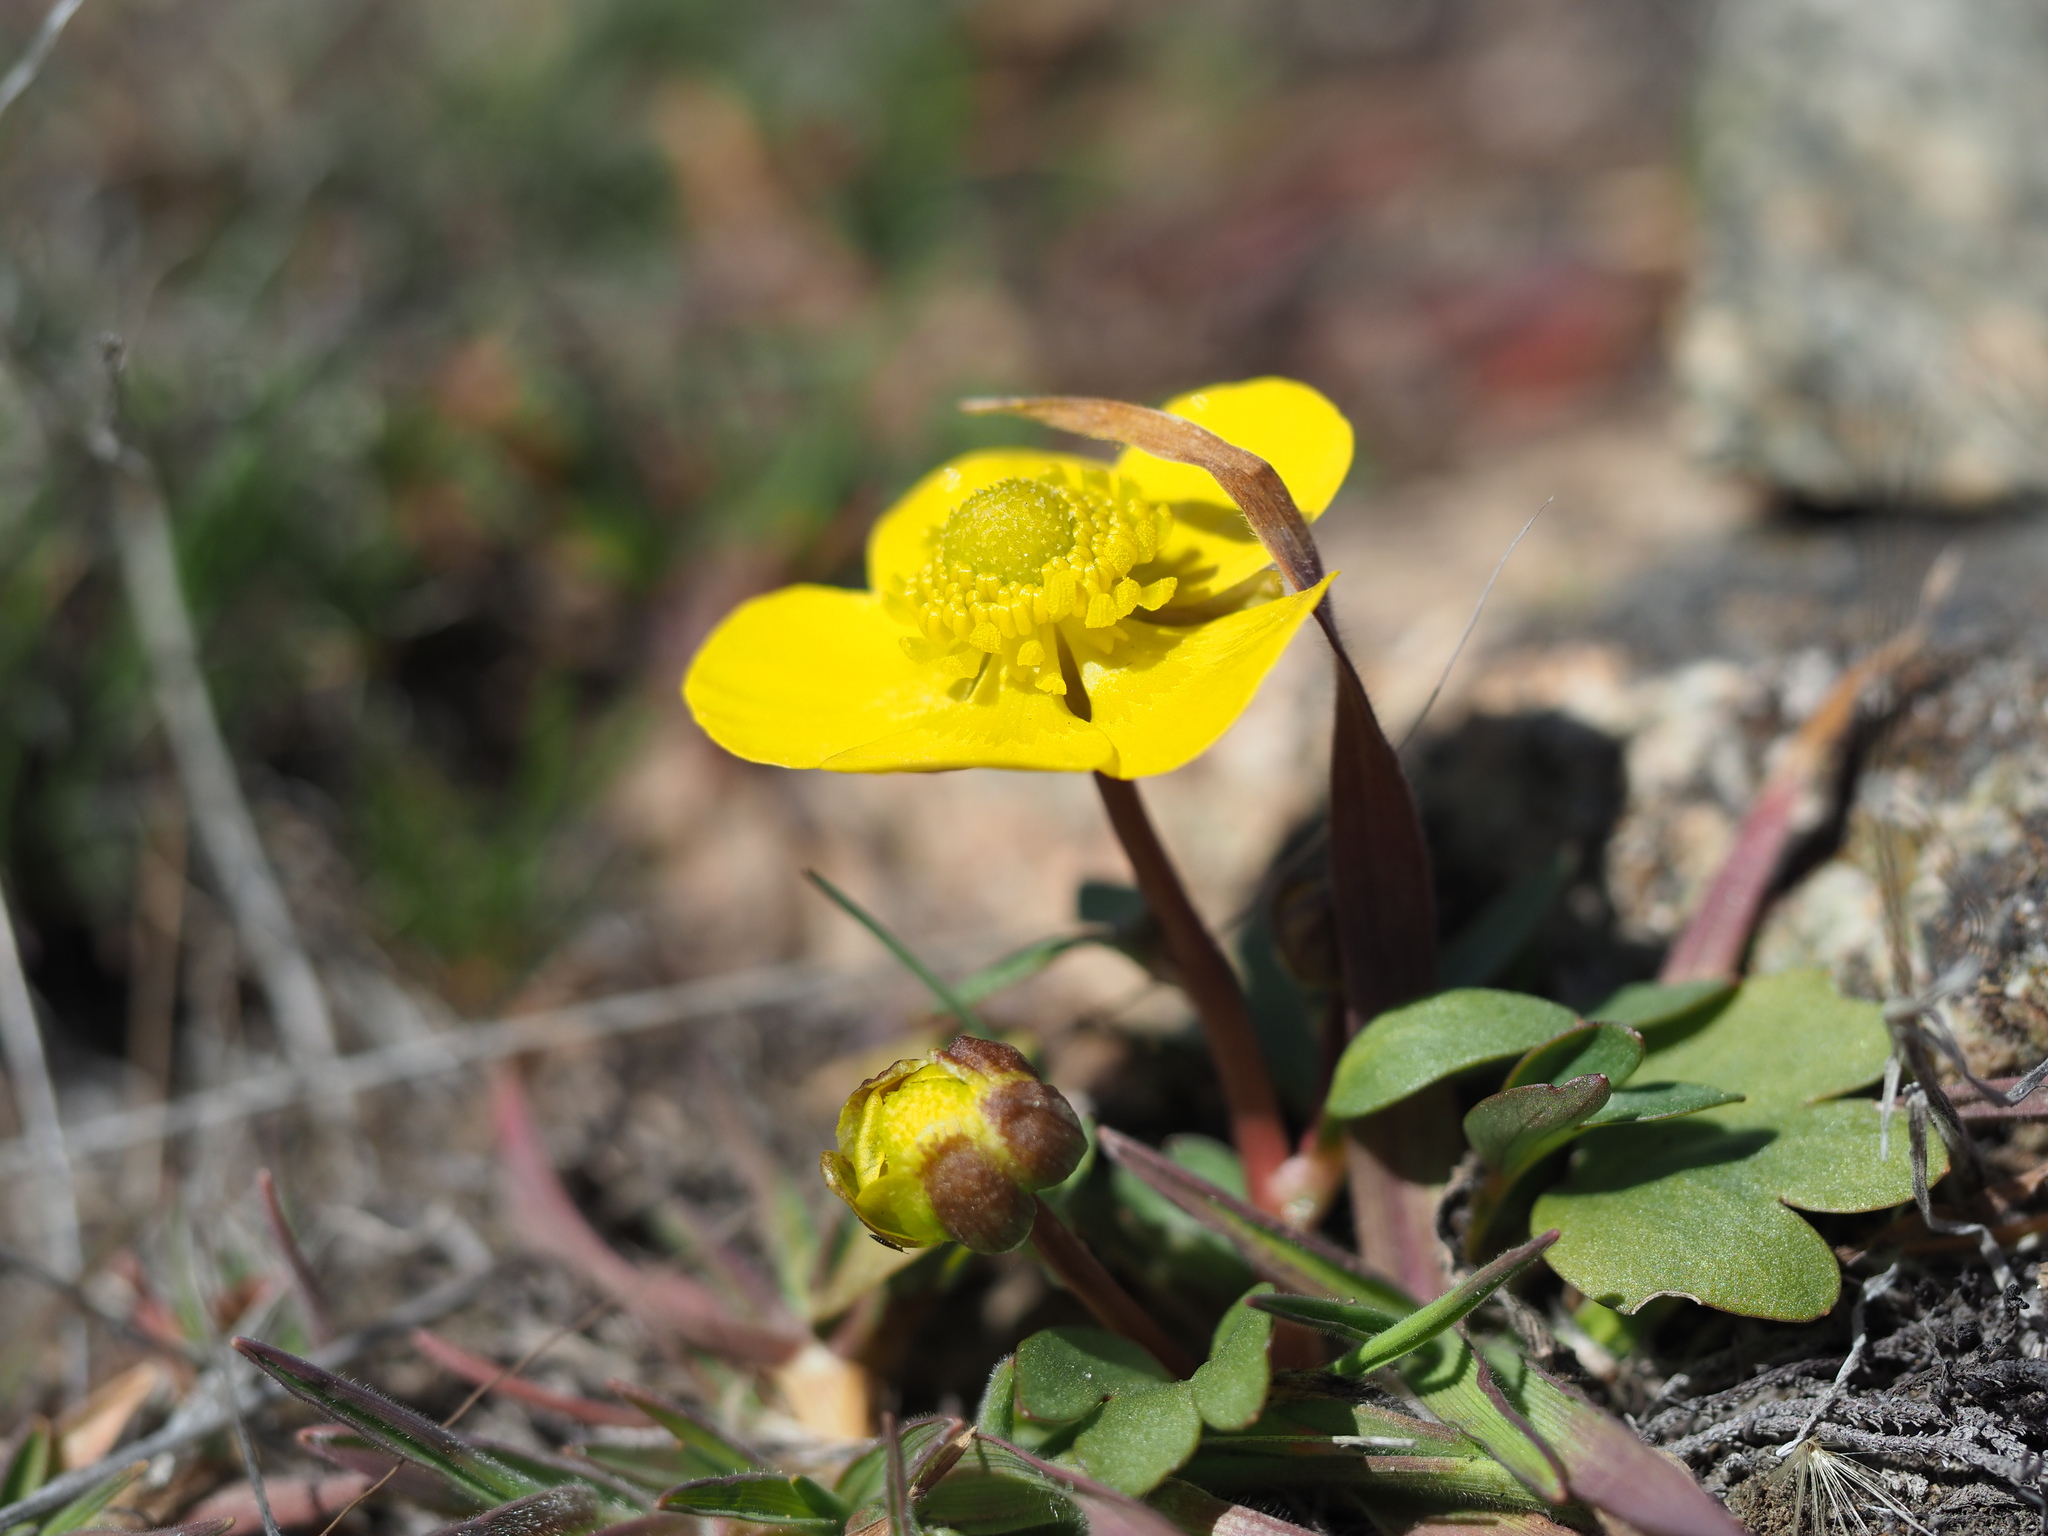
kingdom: Plantae
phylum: Tracheophyta
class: Magnoliopsida
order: Ranunculales
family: Ranunculaceae
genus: Ranunculus
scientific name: Ranunculus glaberrimus
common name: Sagebrush buttercup
